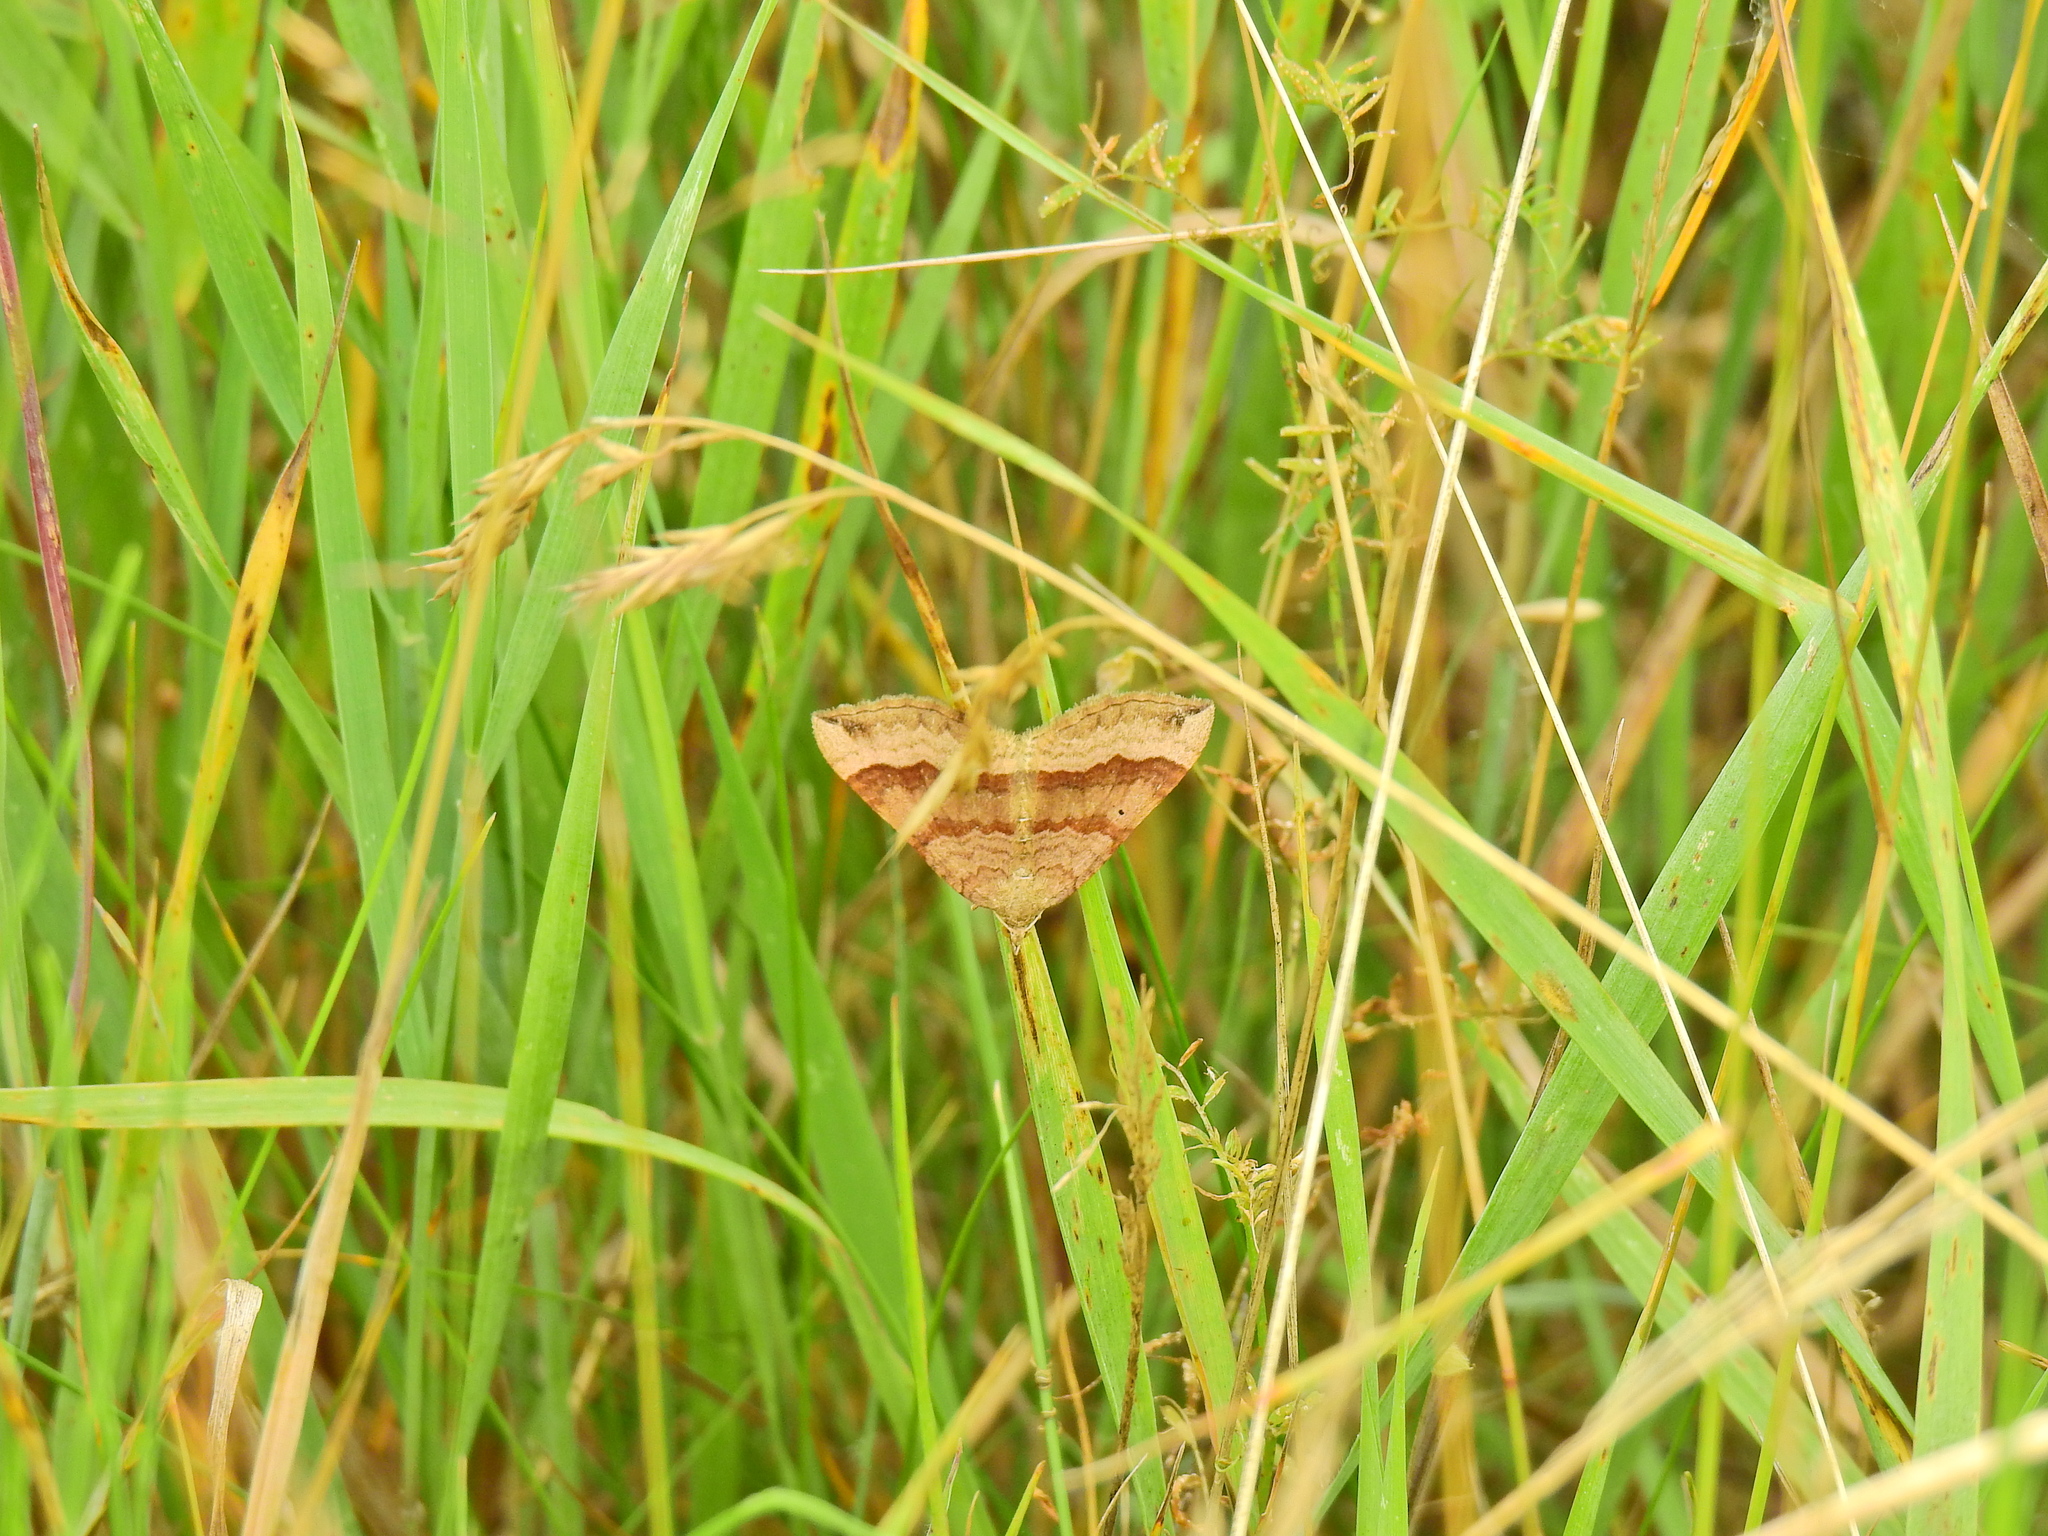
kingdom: Animalia
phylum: Arthropoda
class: Insecta
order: Lepidoptera
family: Geometridae
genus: Scotopteryx
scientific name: Scotopteryx chenopodiata
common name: Shaded broad-bar
